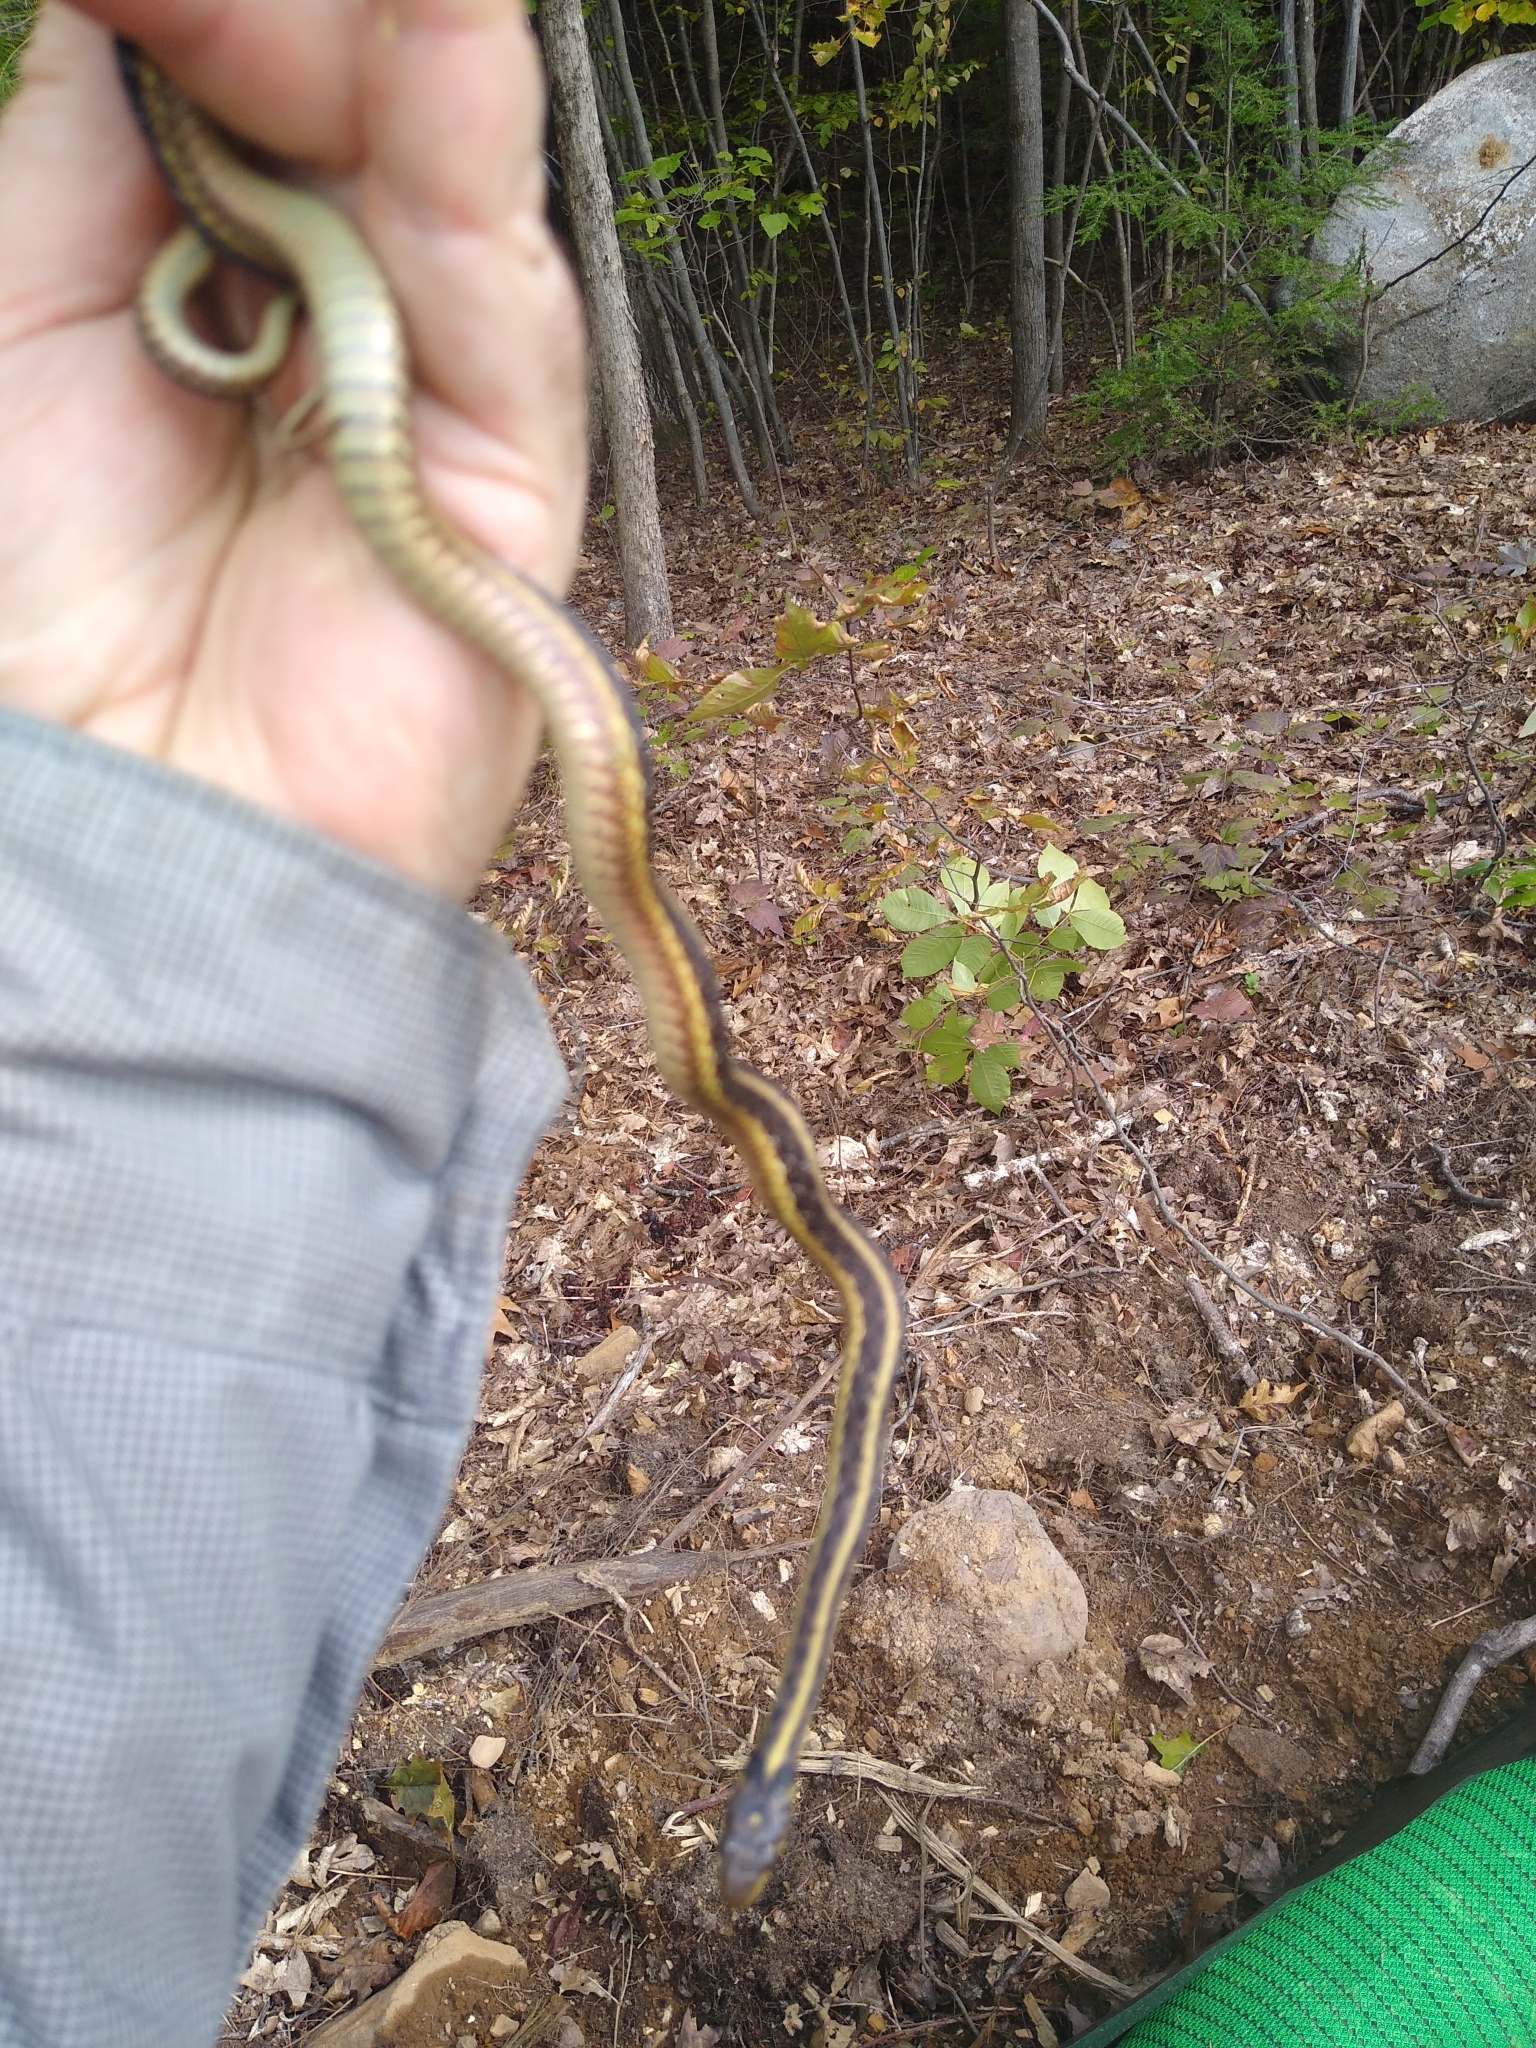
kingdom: Animalia
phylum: Chordata
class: Squamata
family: Colubridae
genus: Thamnophis
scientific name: Thamnophis sirtalis
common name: Common garter snake
